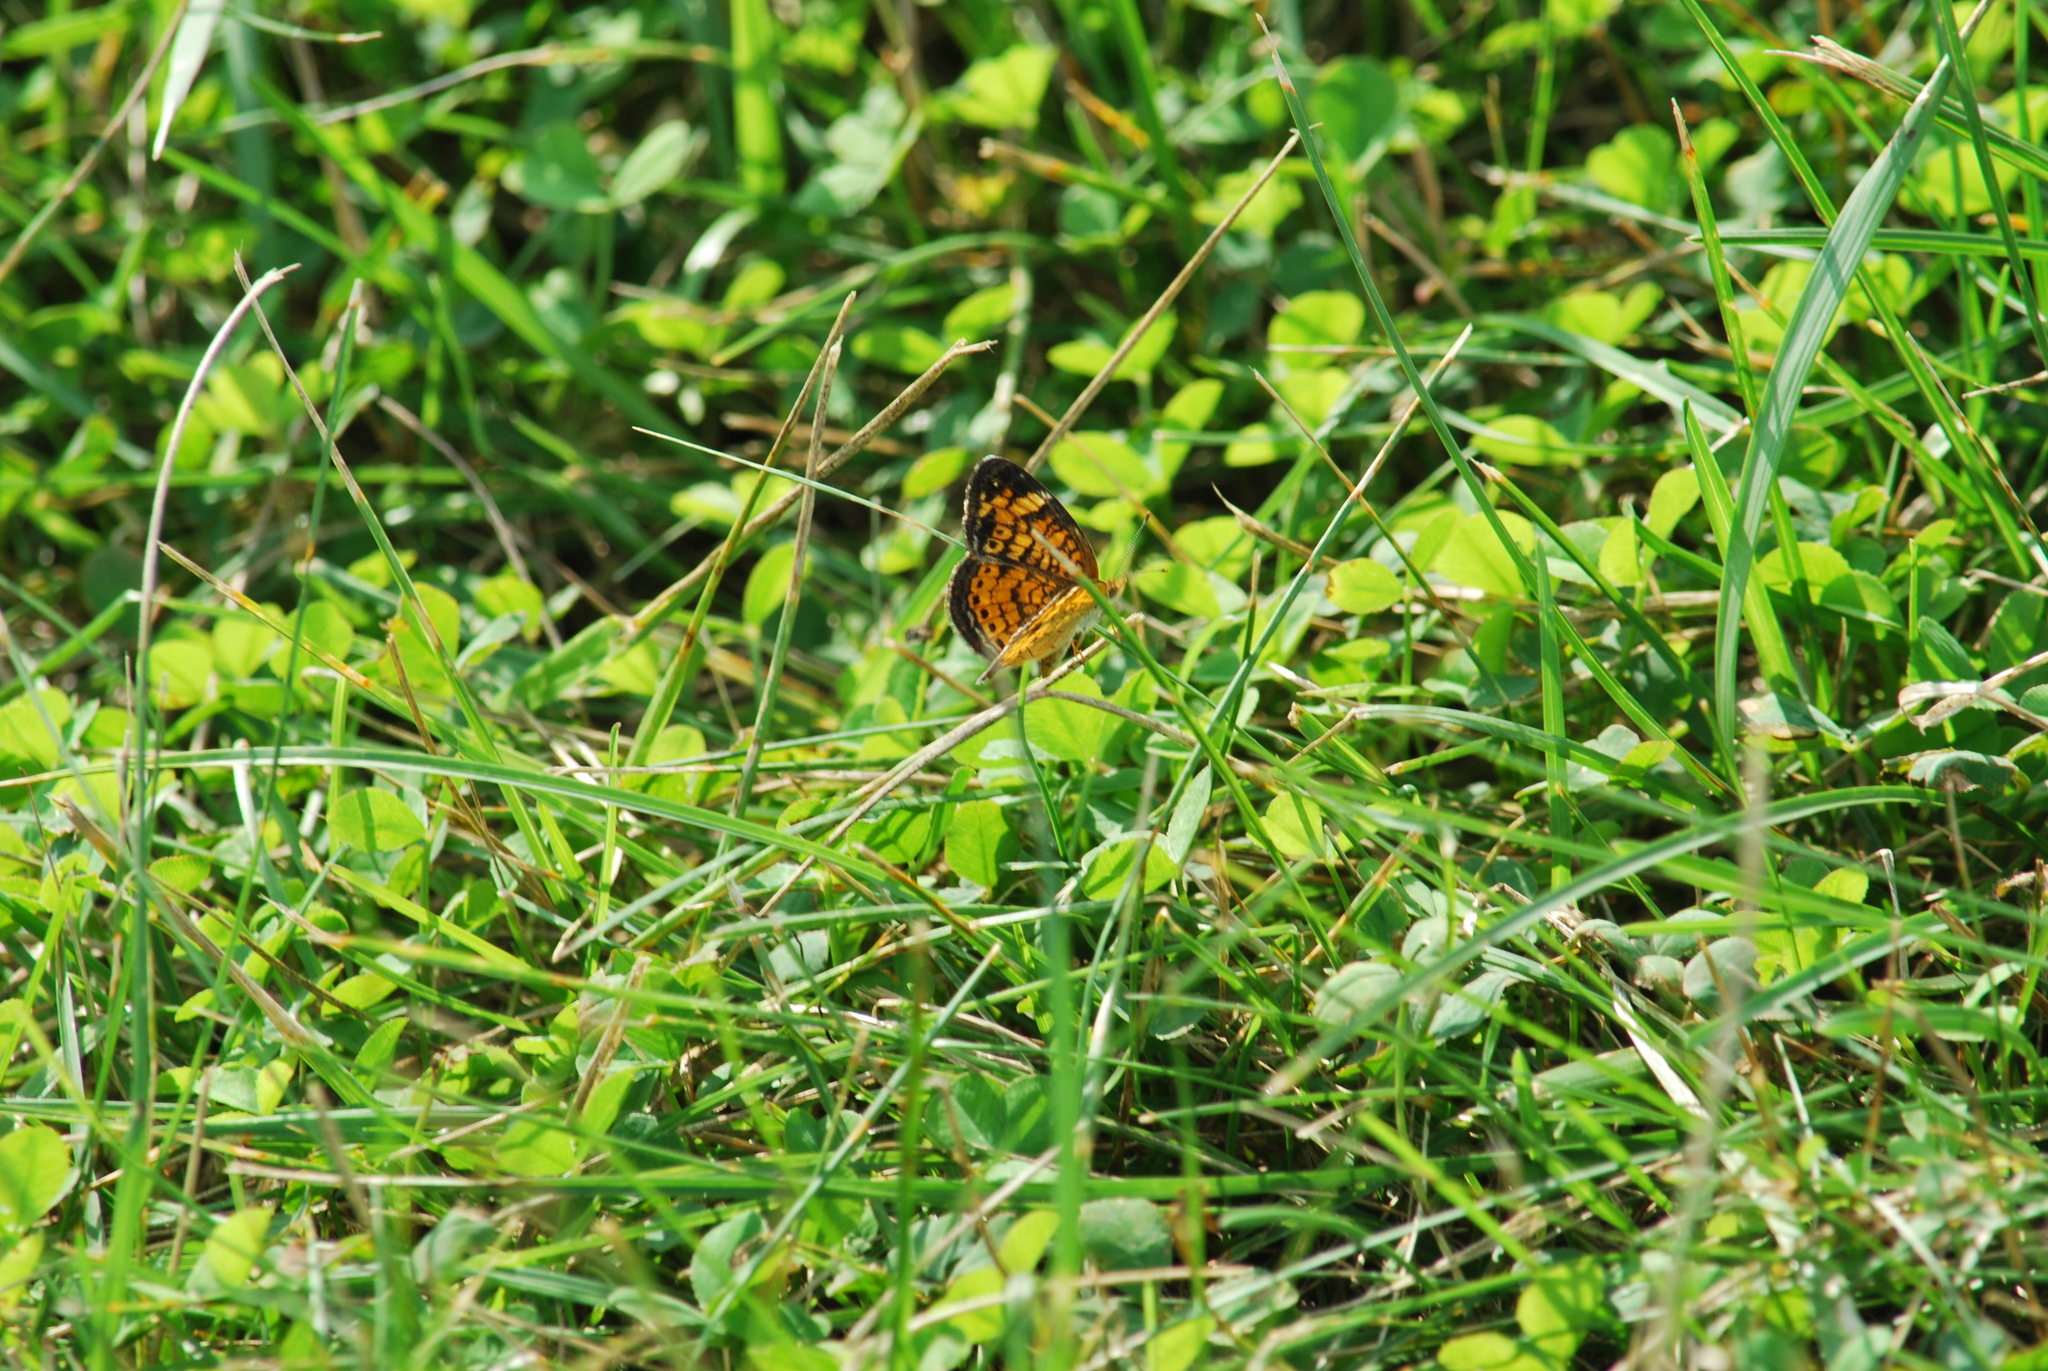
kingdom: Animalia
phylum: Arthropoda
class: Insecta
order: Lepidoptera
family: Nymphalidae
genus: Phyciodes
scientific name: Phyciodes tharos
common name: Pearl crescent
